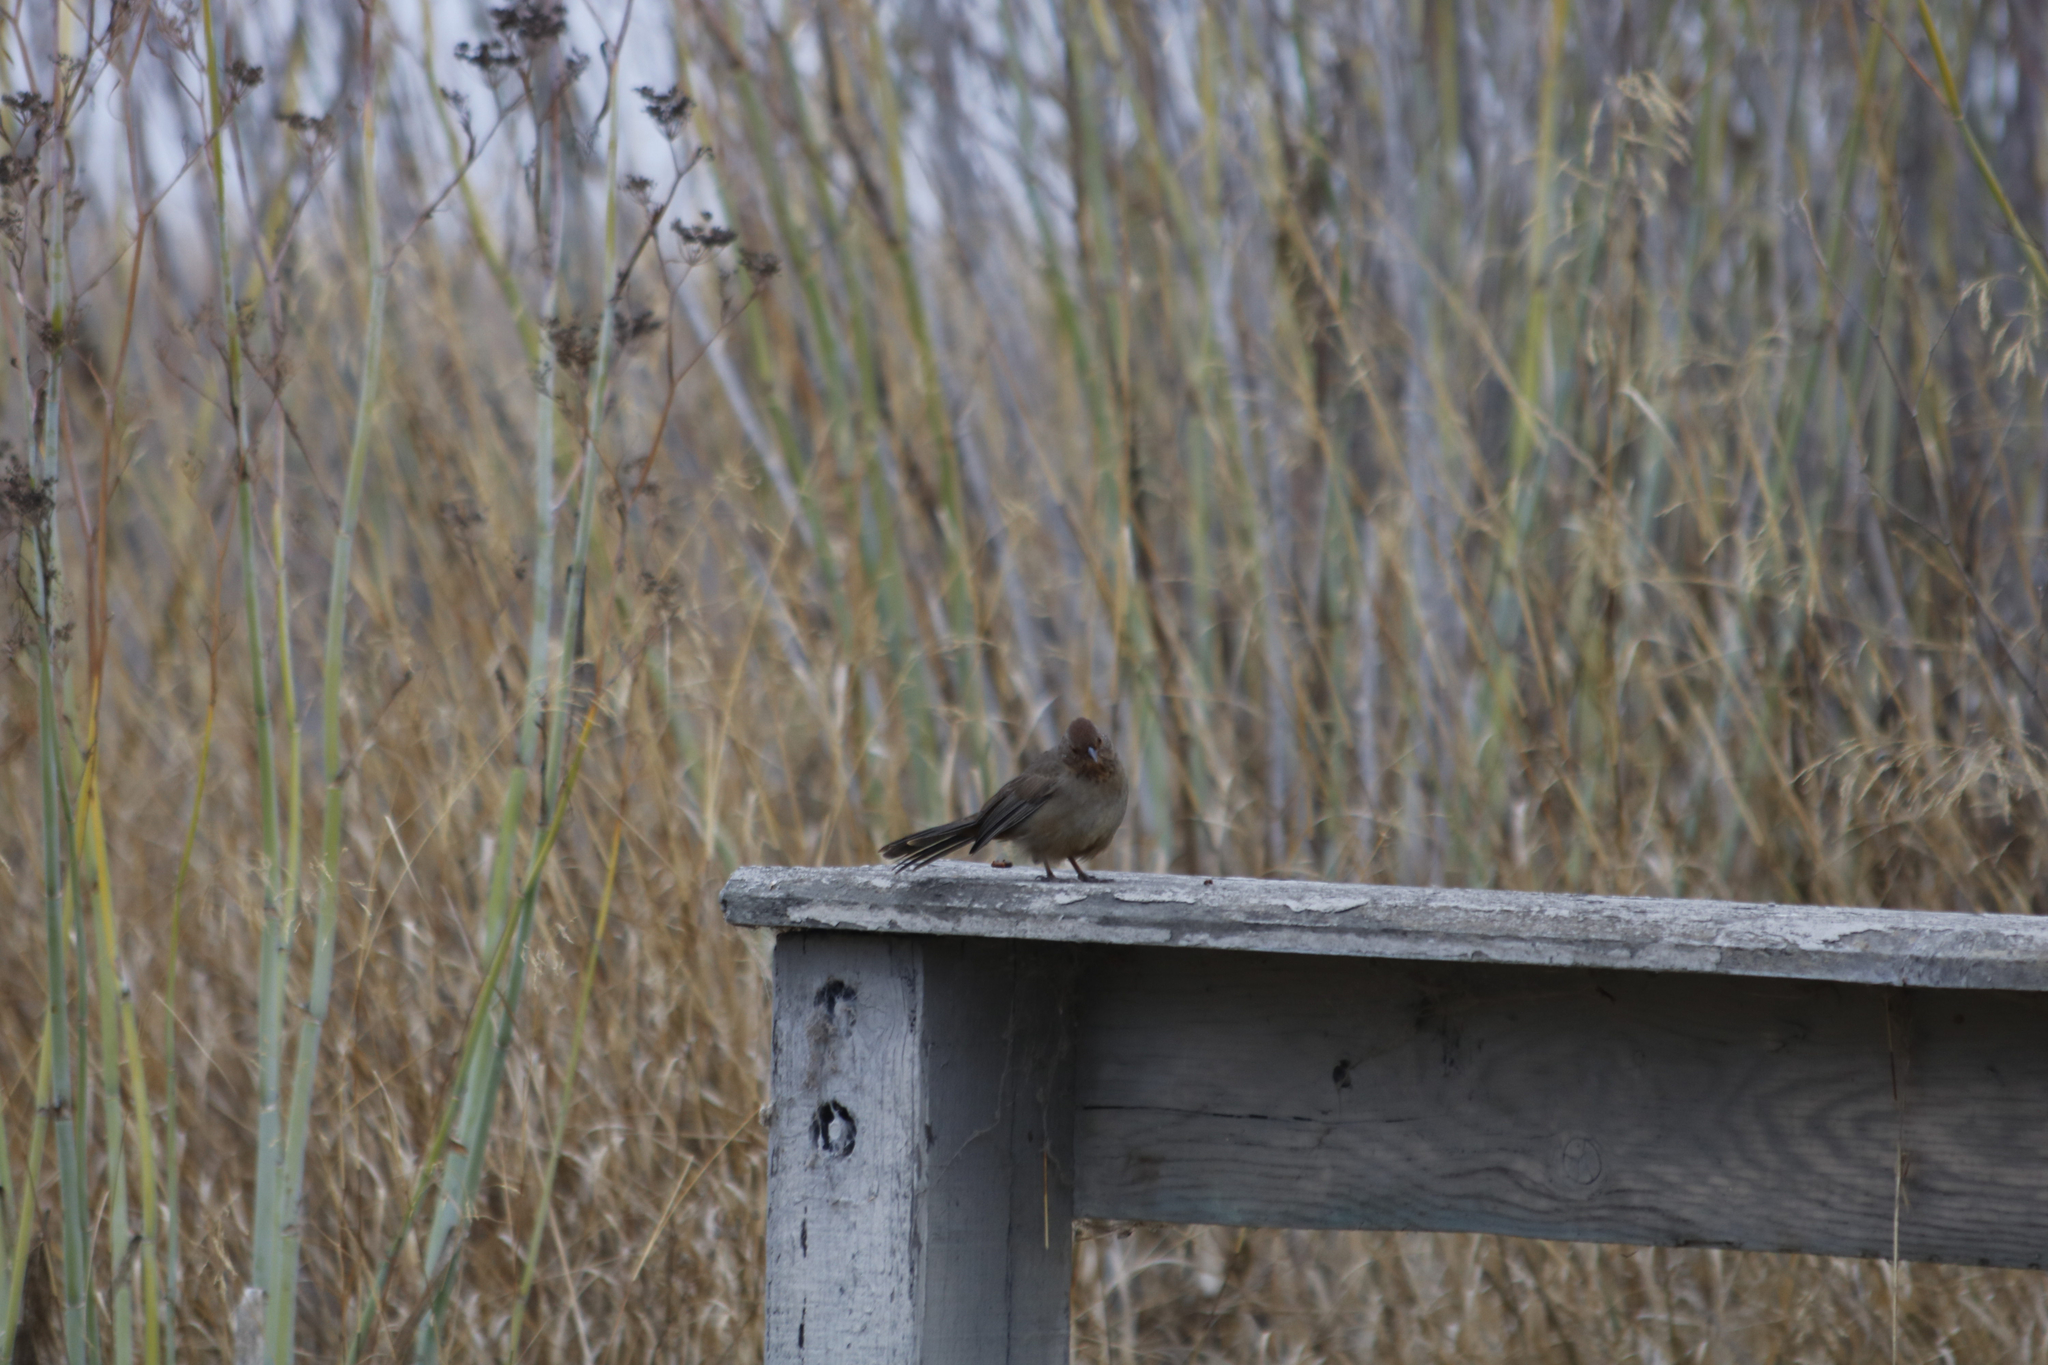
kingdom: Animalia
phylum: Chordata
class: Aves
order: Passeriformes
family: Passerellidae
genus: Melozone
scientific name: Melozone crissalis
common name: California towhee
